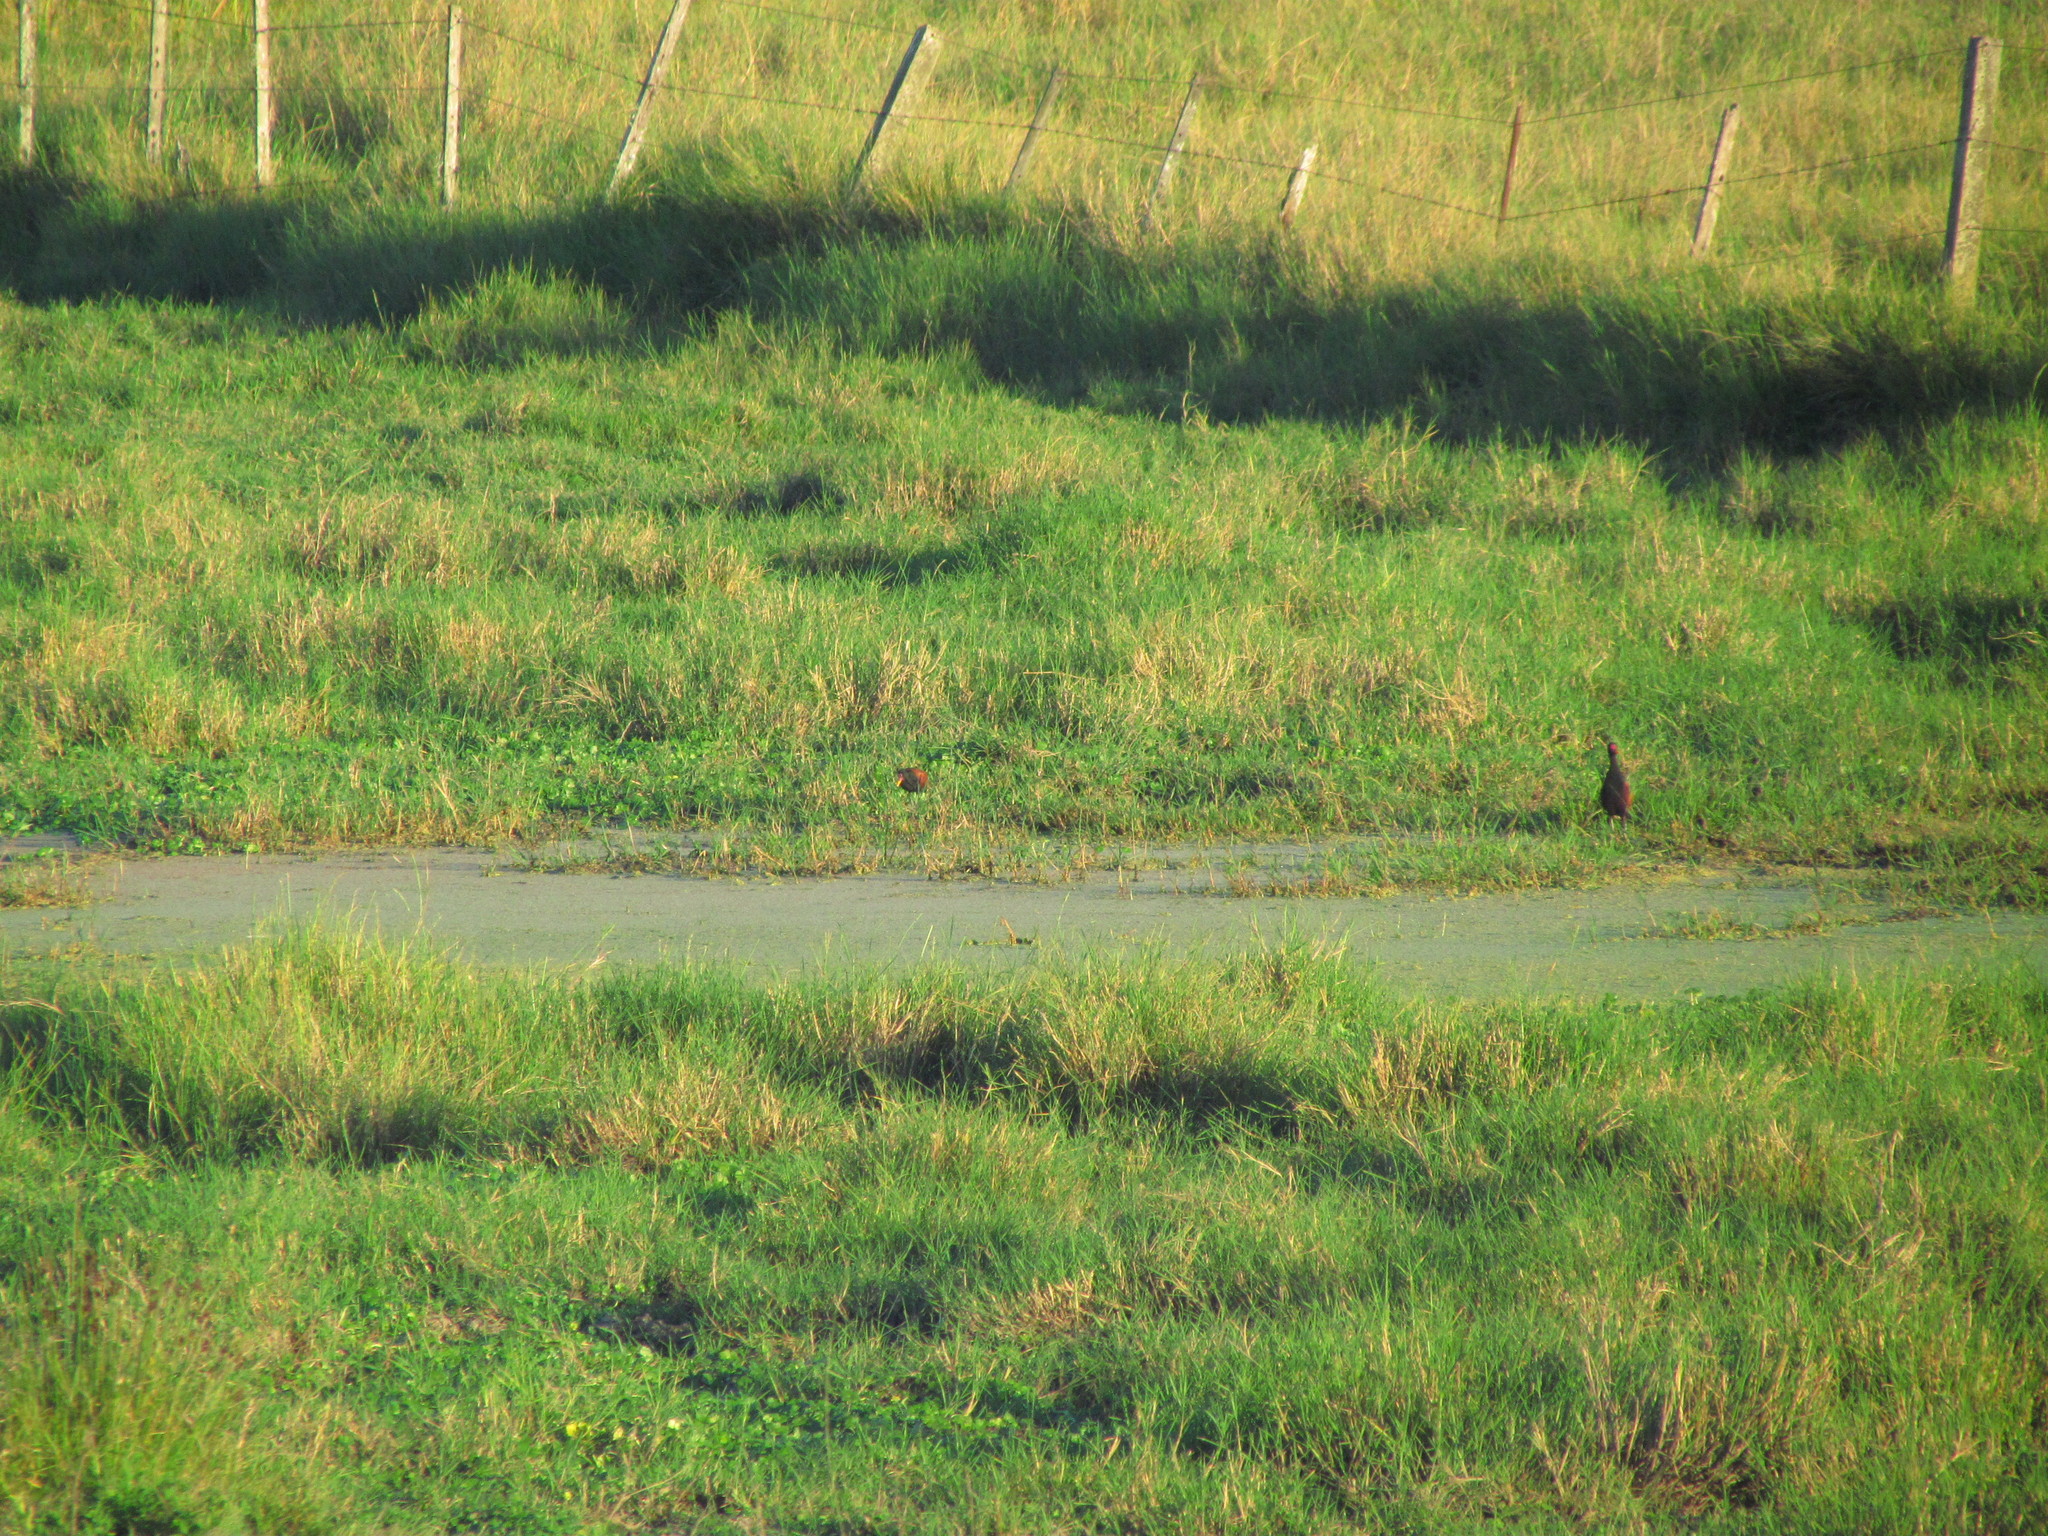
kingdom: Animalia
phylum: Chordata
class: Aves
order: Charadriiformes
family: Jacanidae
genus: Jacana
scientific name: Jacana jacana
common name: Wattled jacana
